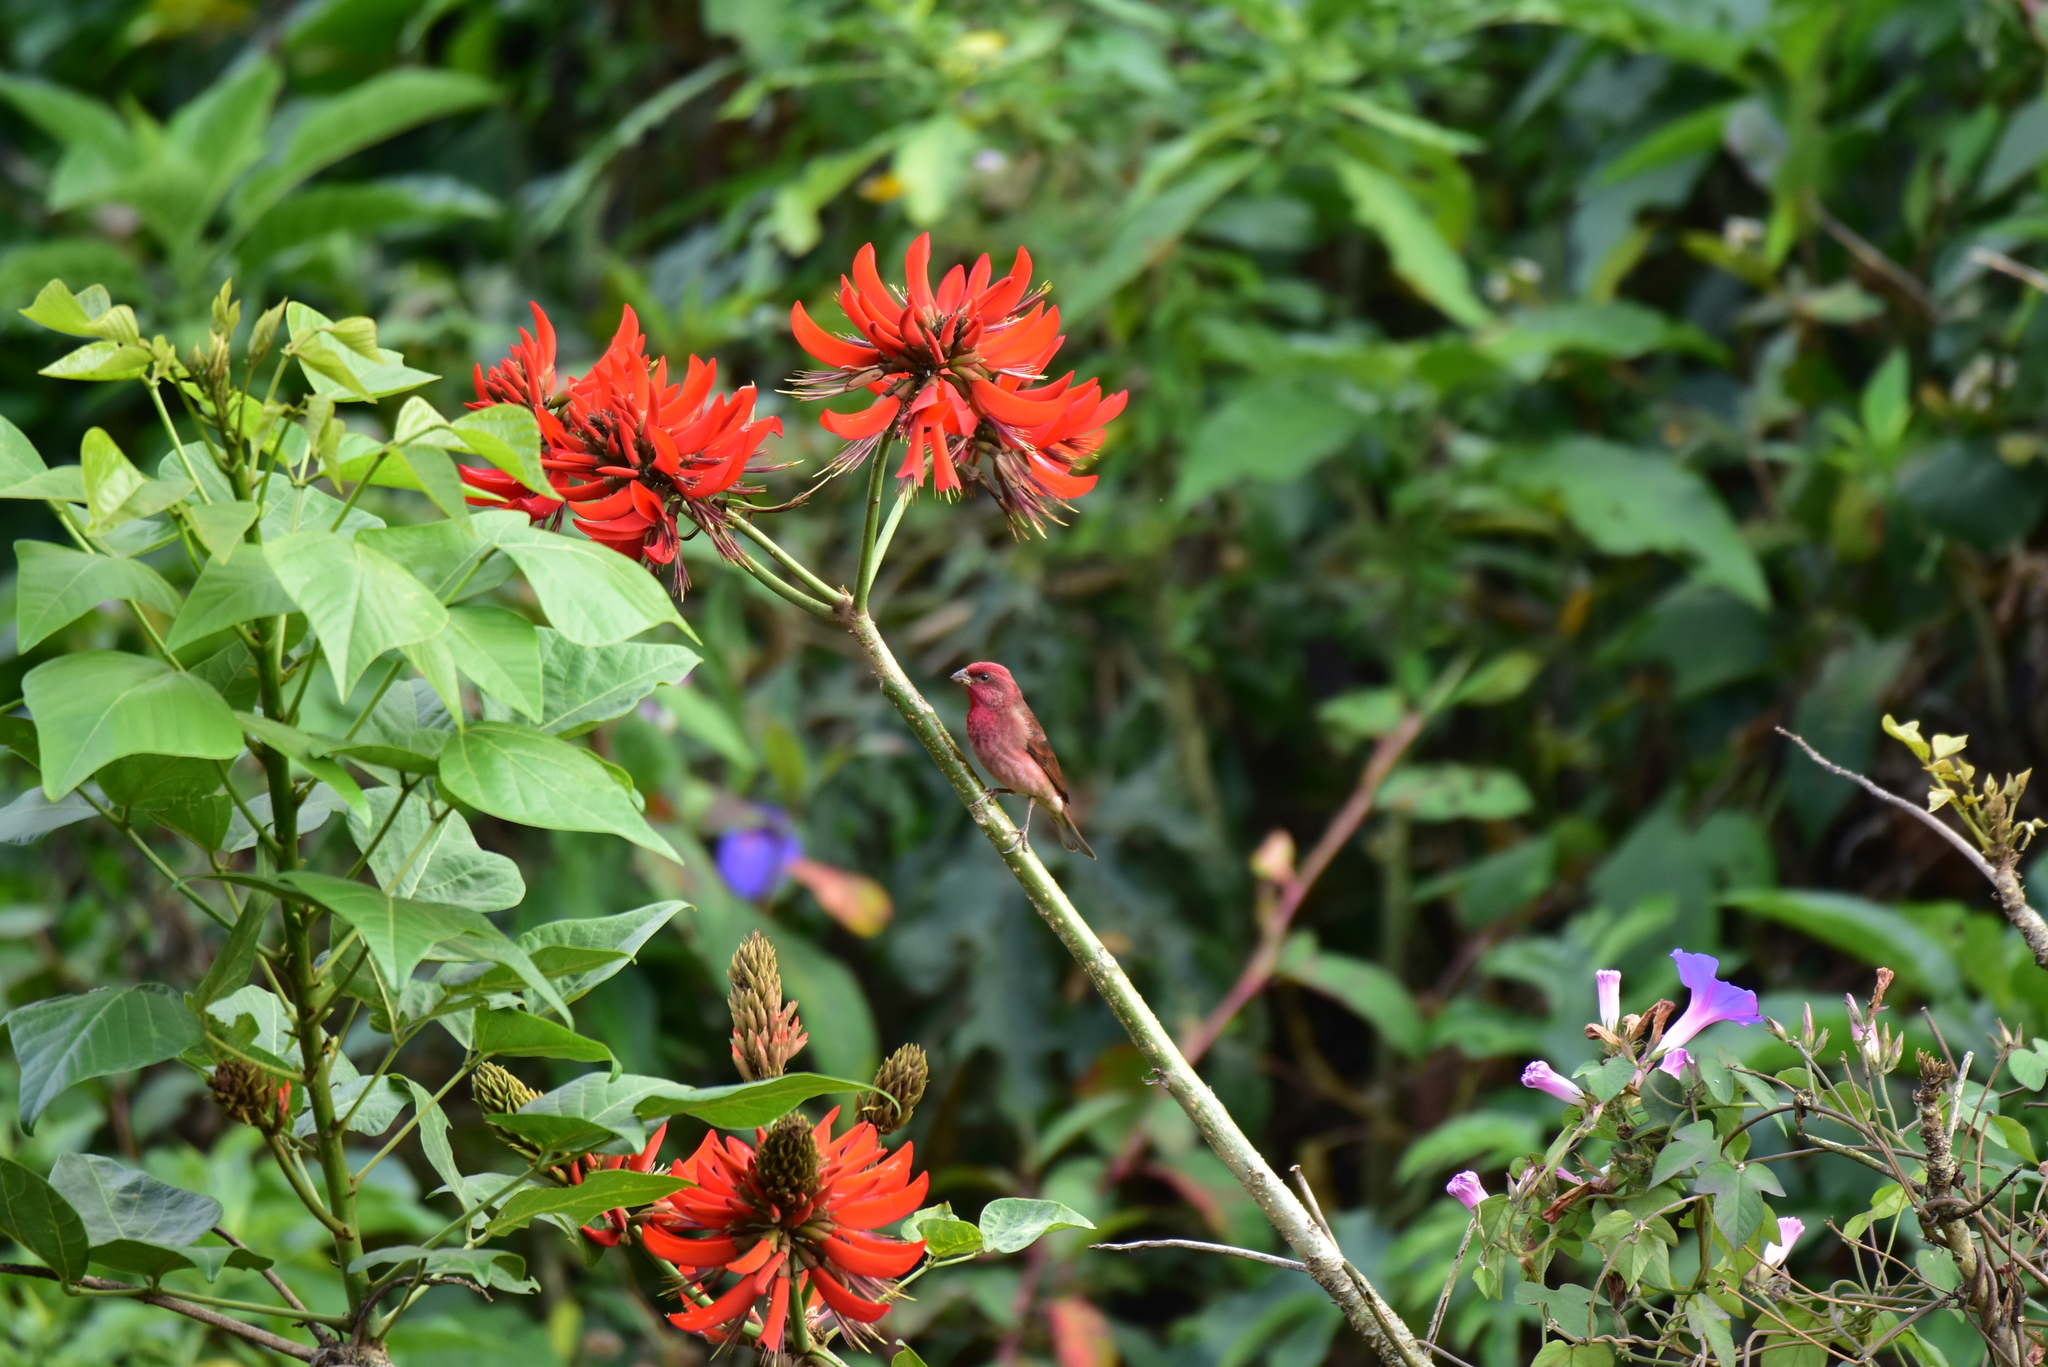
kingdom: Plantae
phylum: Tracheophyta
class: Magnoliopsida
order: Fabales
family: Fabaceae
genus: Erythrina
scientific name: Erythrina variegata
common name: Indian coral tree
